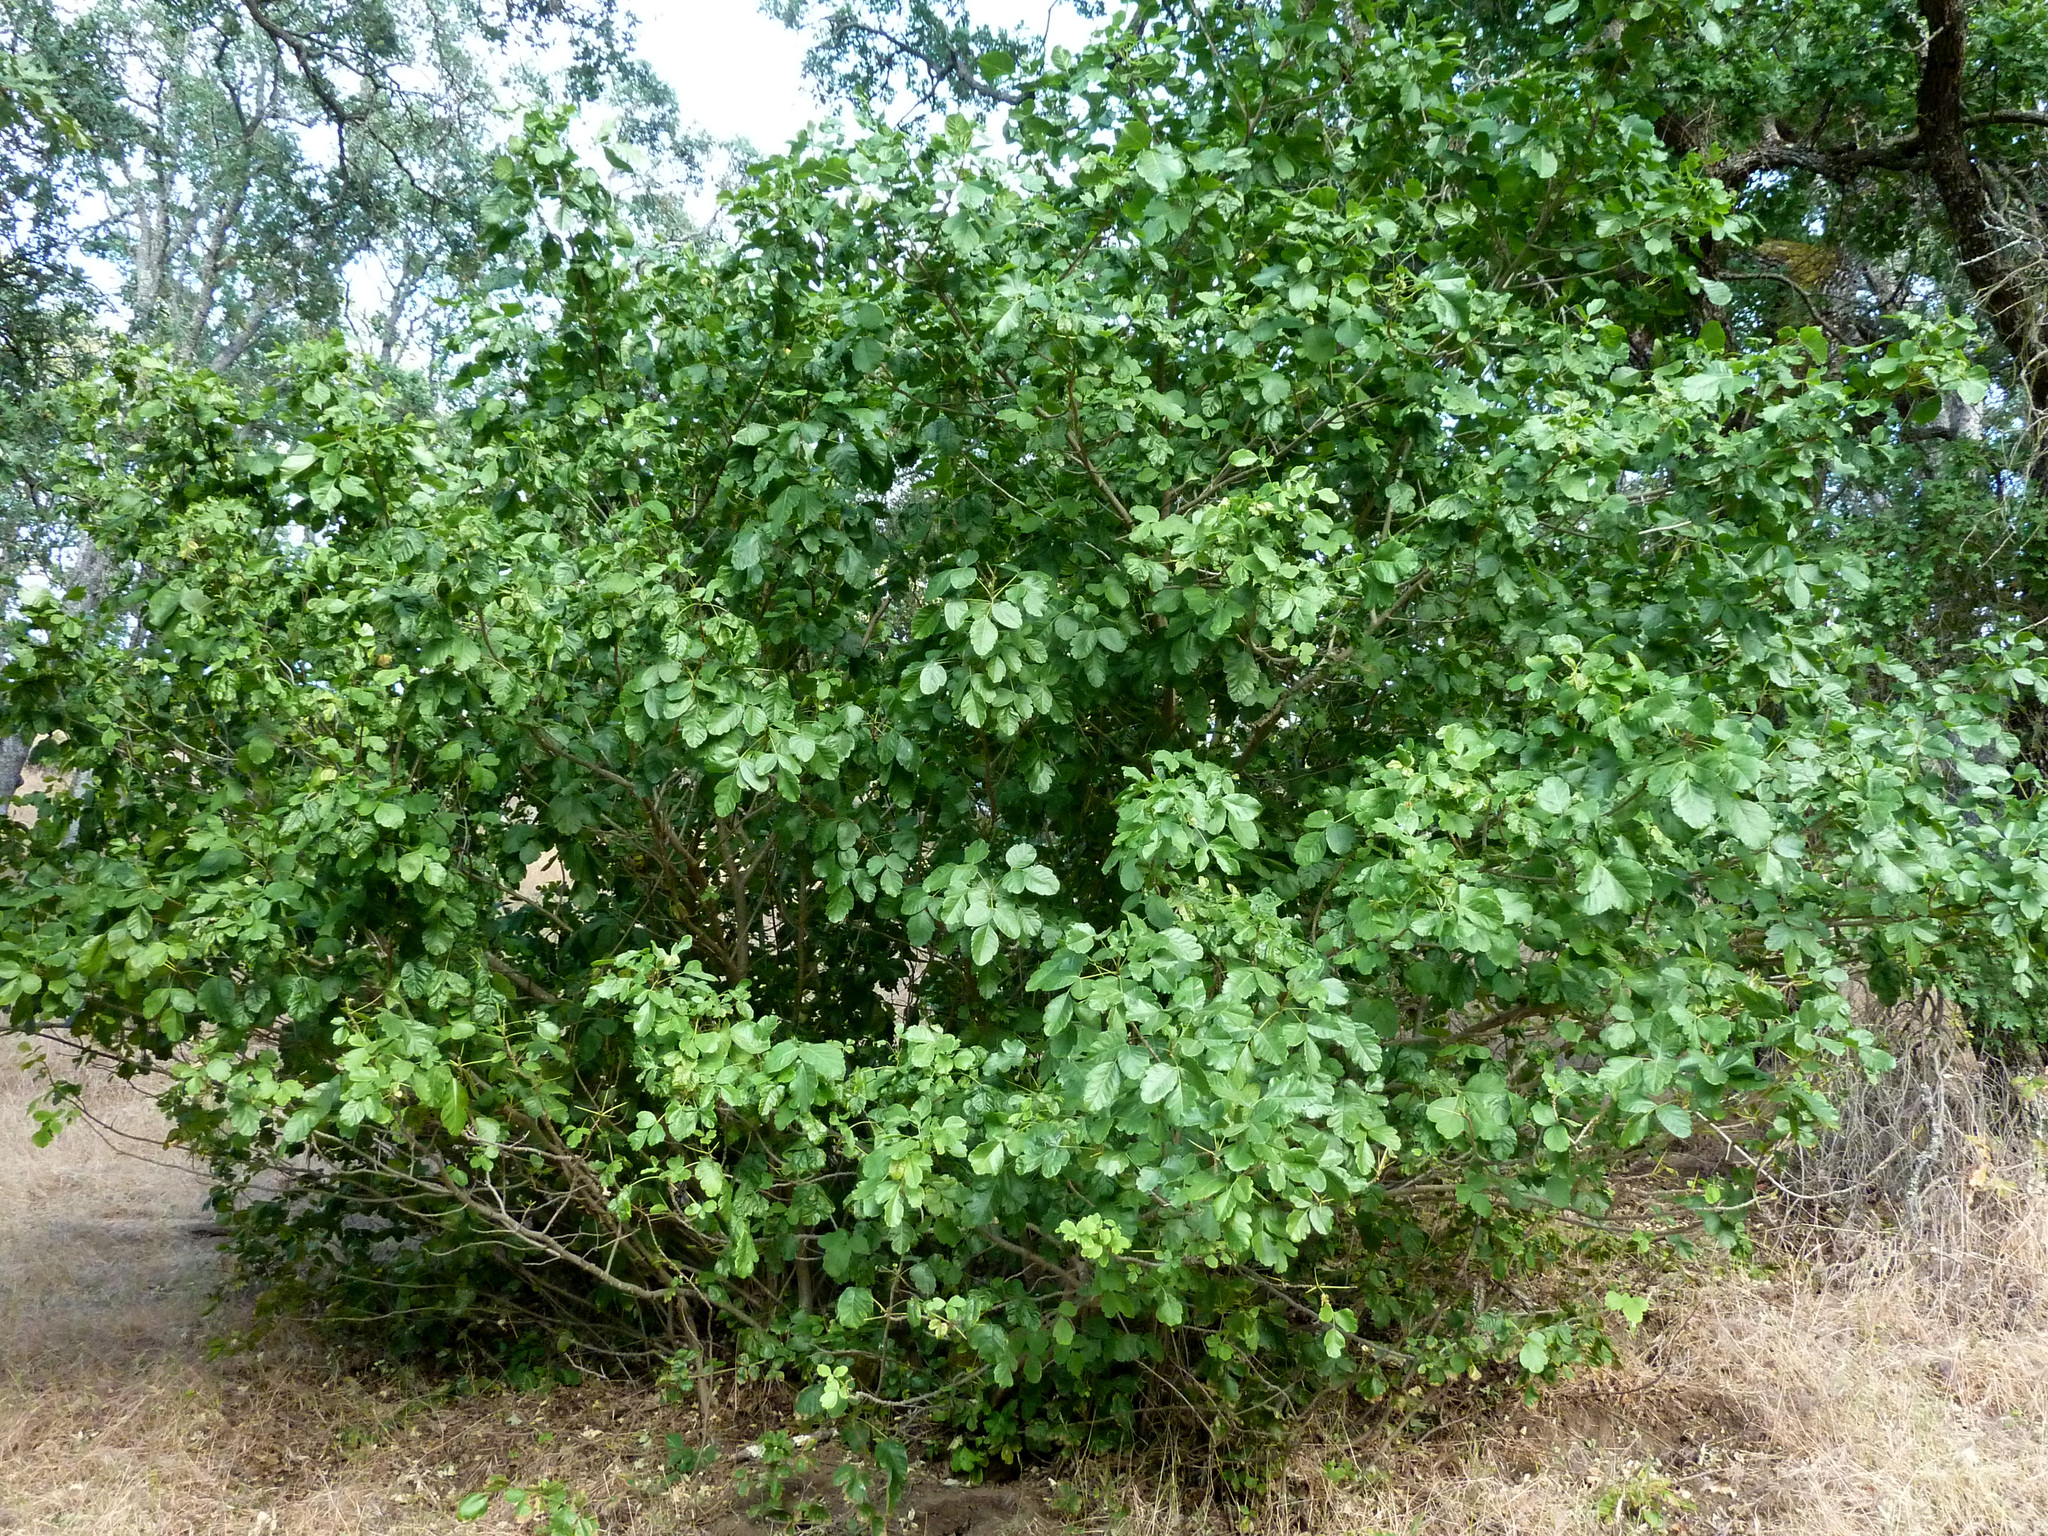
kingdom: Plantae
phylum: Tracheophyta
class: Magnoliopsida
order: Sapindales
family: Anacardiaceae
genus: Toxicodendron
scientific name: Toxicodendron diversilobum
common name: Pacific poison-oak
